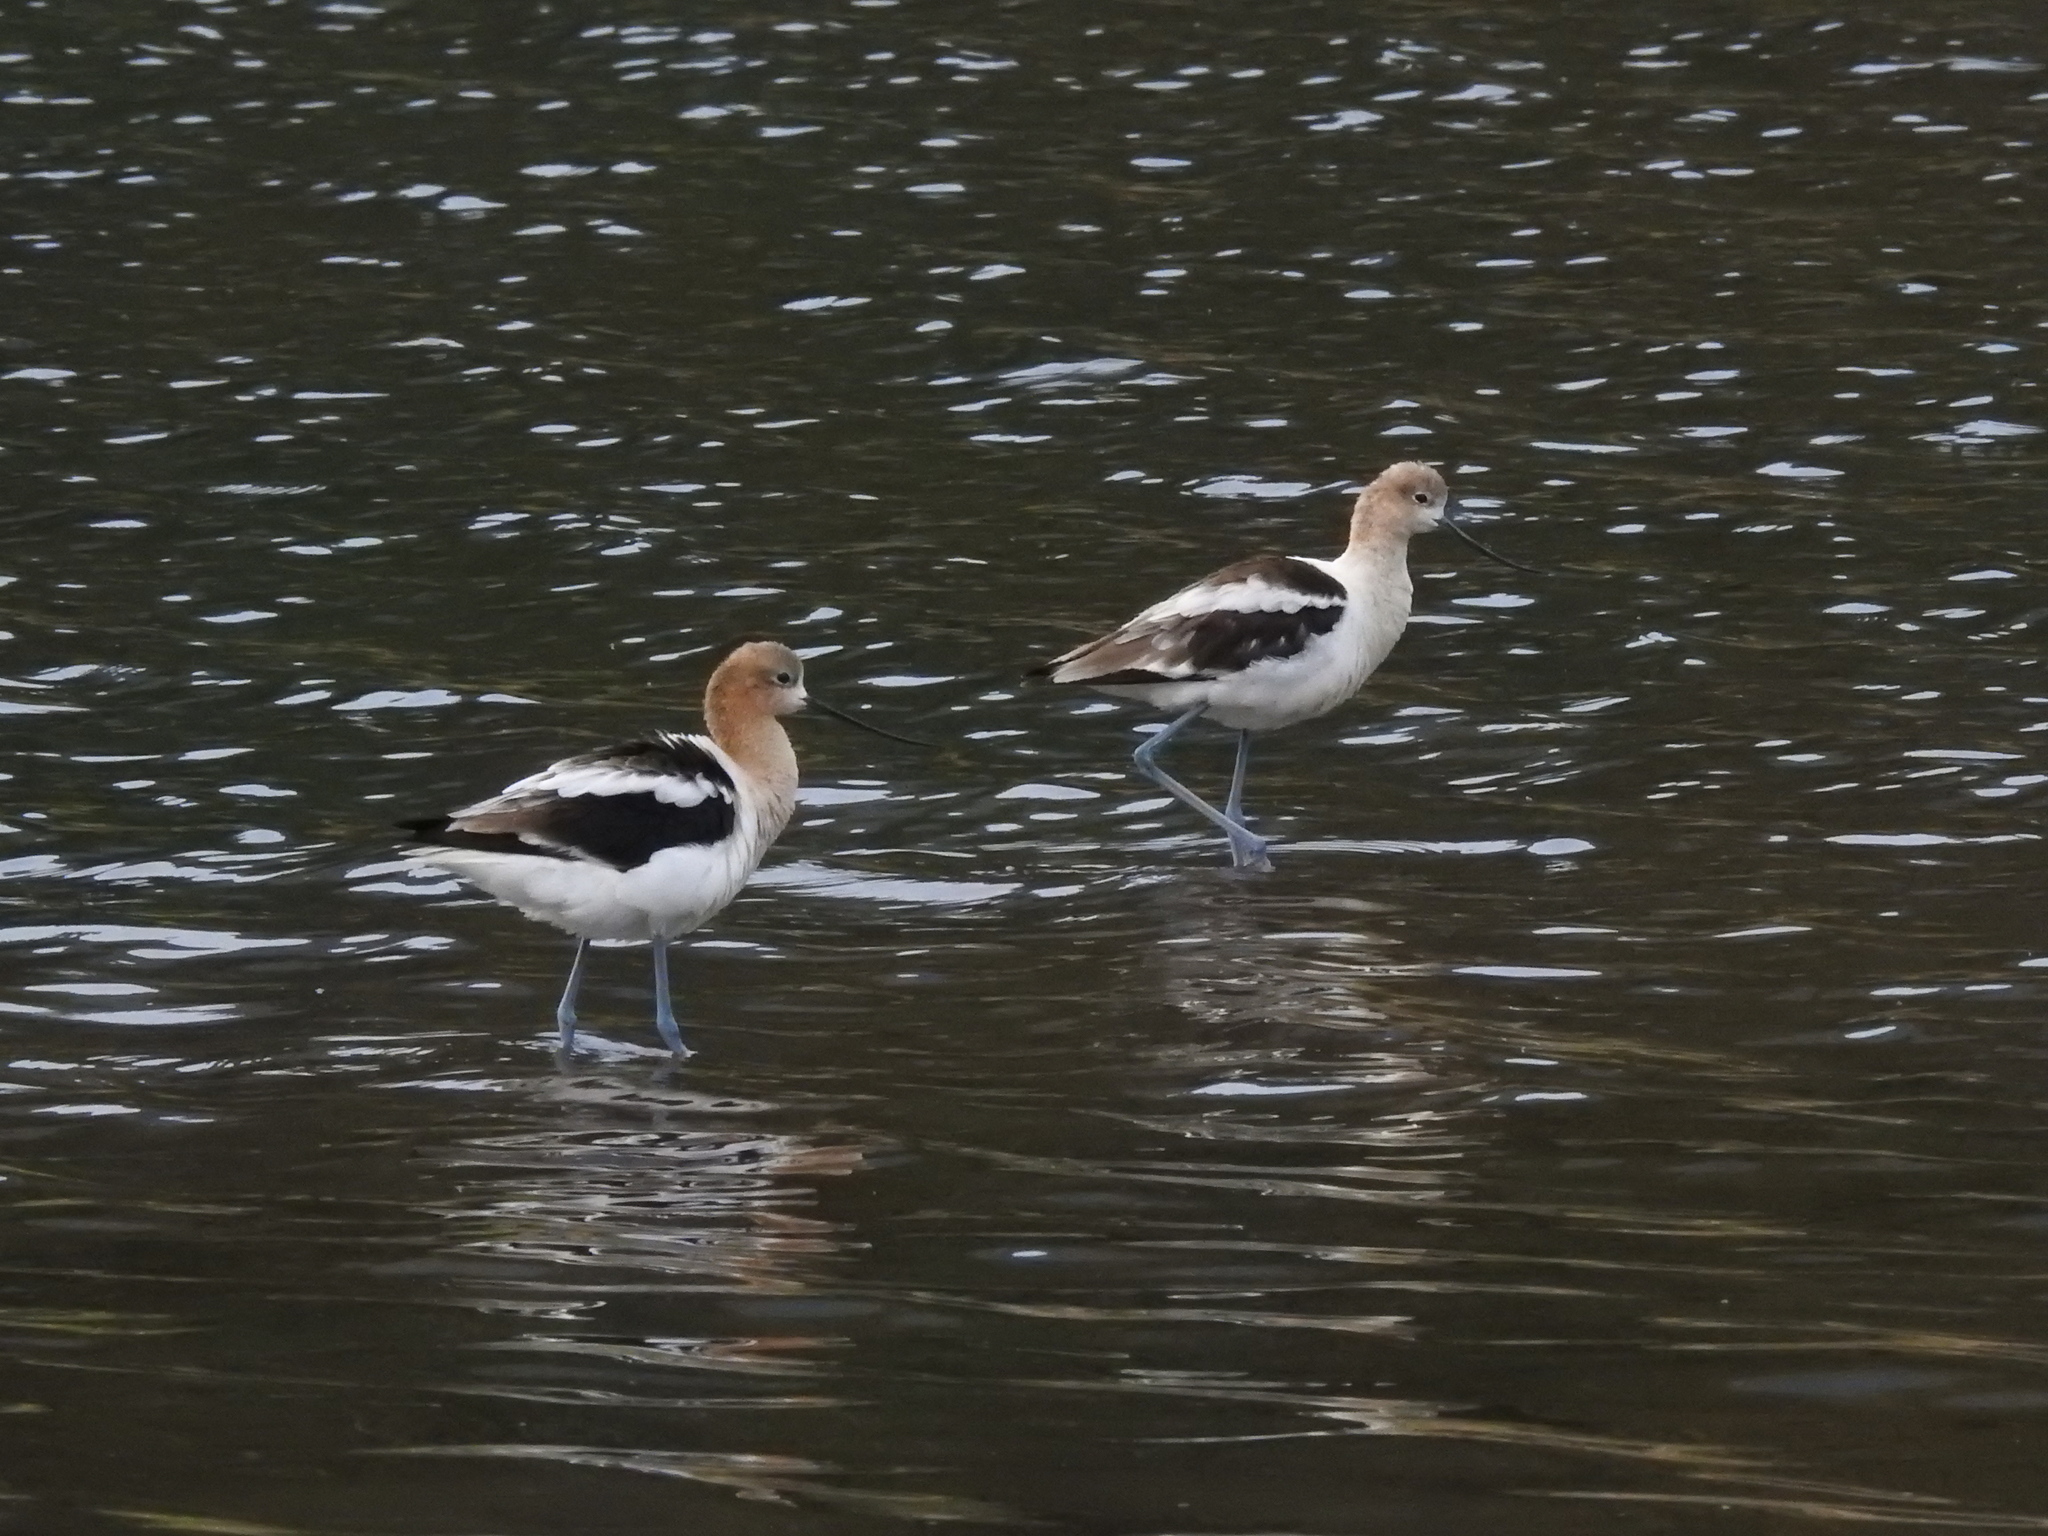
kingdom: Animalia
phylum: Chordata
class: Aves
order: Charadriiformes
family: Recurvirostridae
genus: Recurvirostra
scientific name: Recurvirostra americana
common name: American avocet
